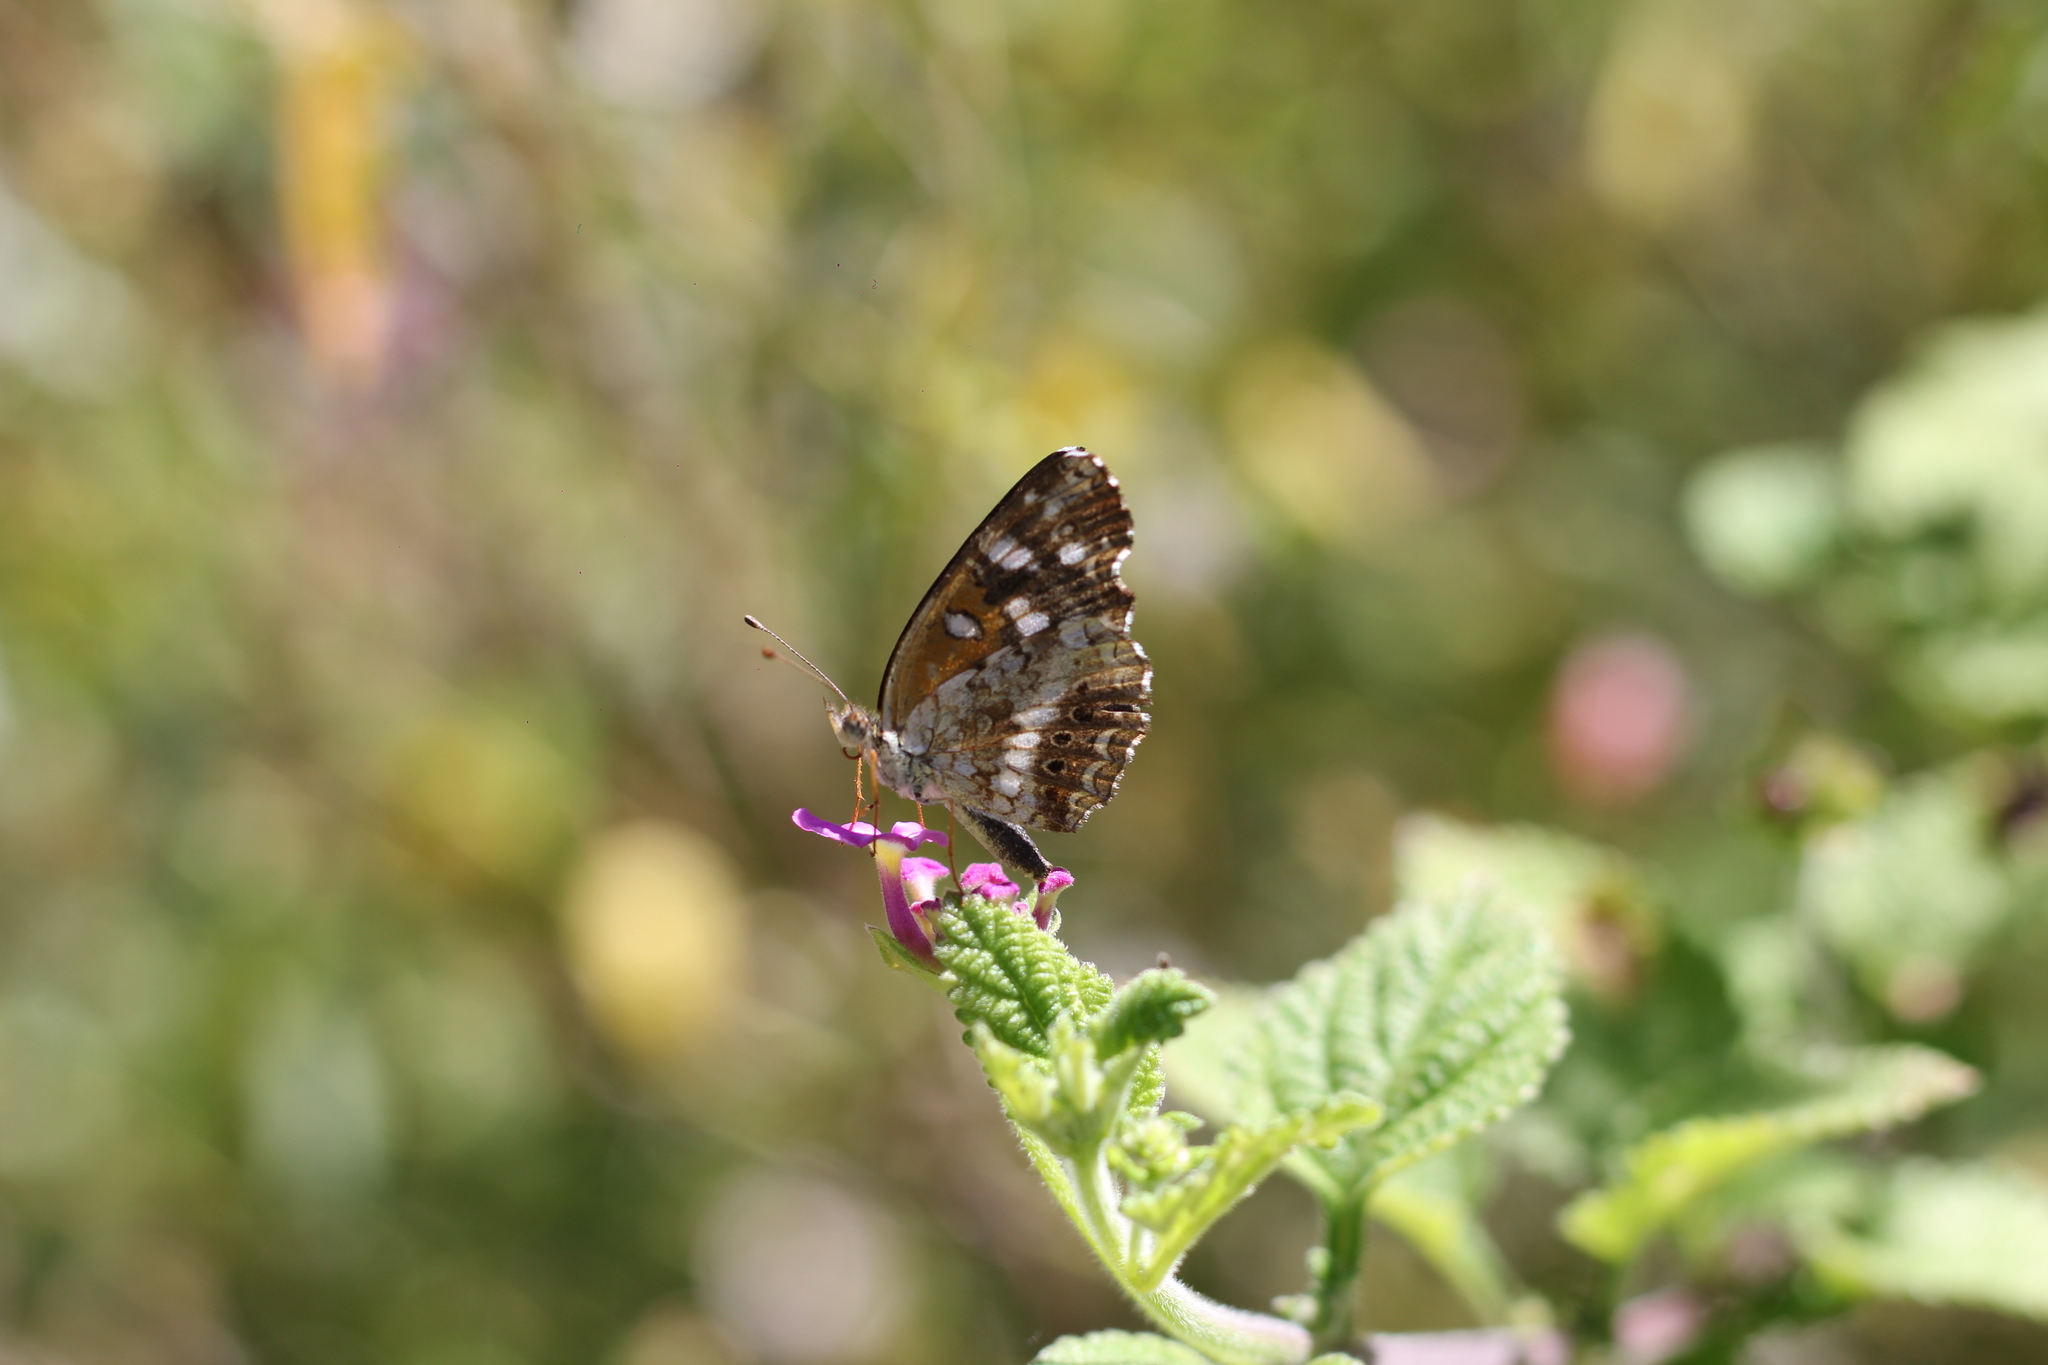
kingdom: Animalia
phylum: Arthropoda
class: Insecta
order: Lepidoptera
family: Nymphalidae
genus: Ortilia
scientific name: Ortilia ithra
